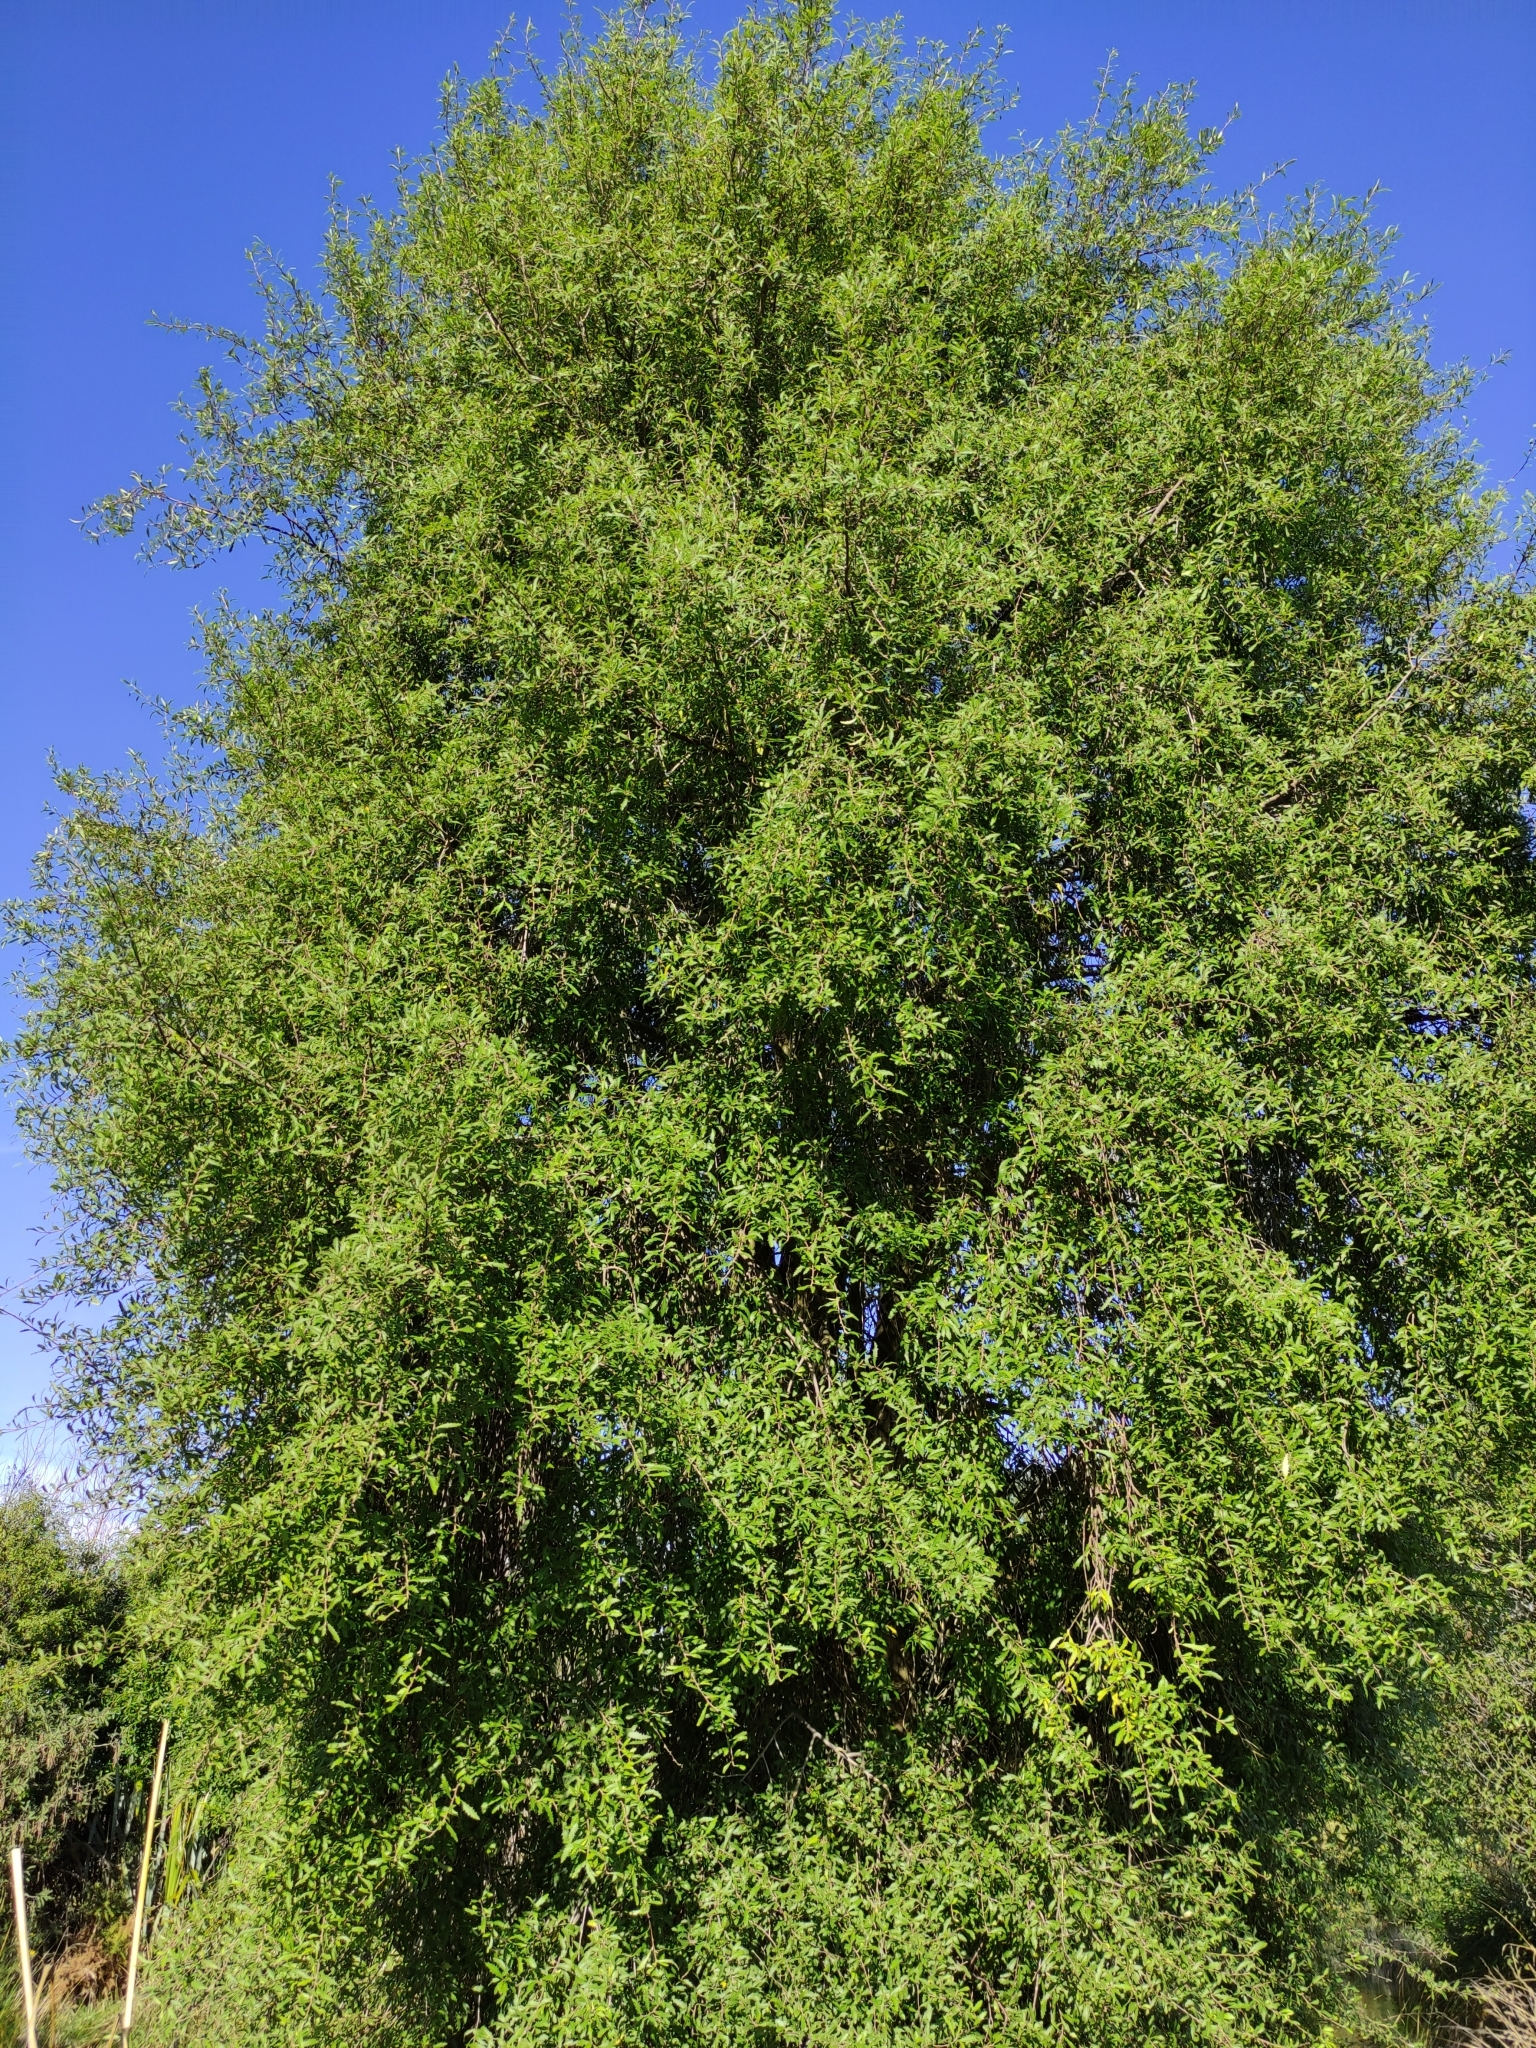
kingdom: Plantae
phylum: Tracheophyta
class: Magnoliopsida
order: Malvales
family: Malvaceae
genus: Hoheria
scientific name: Hoheria angustifolia
